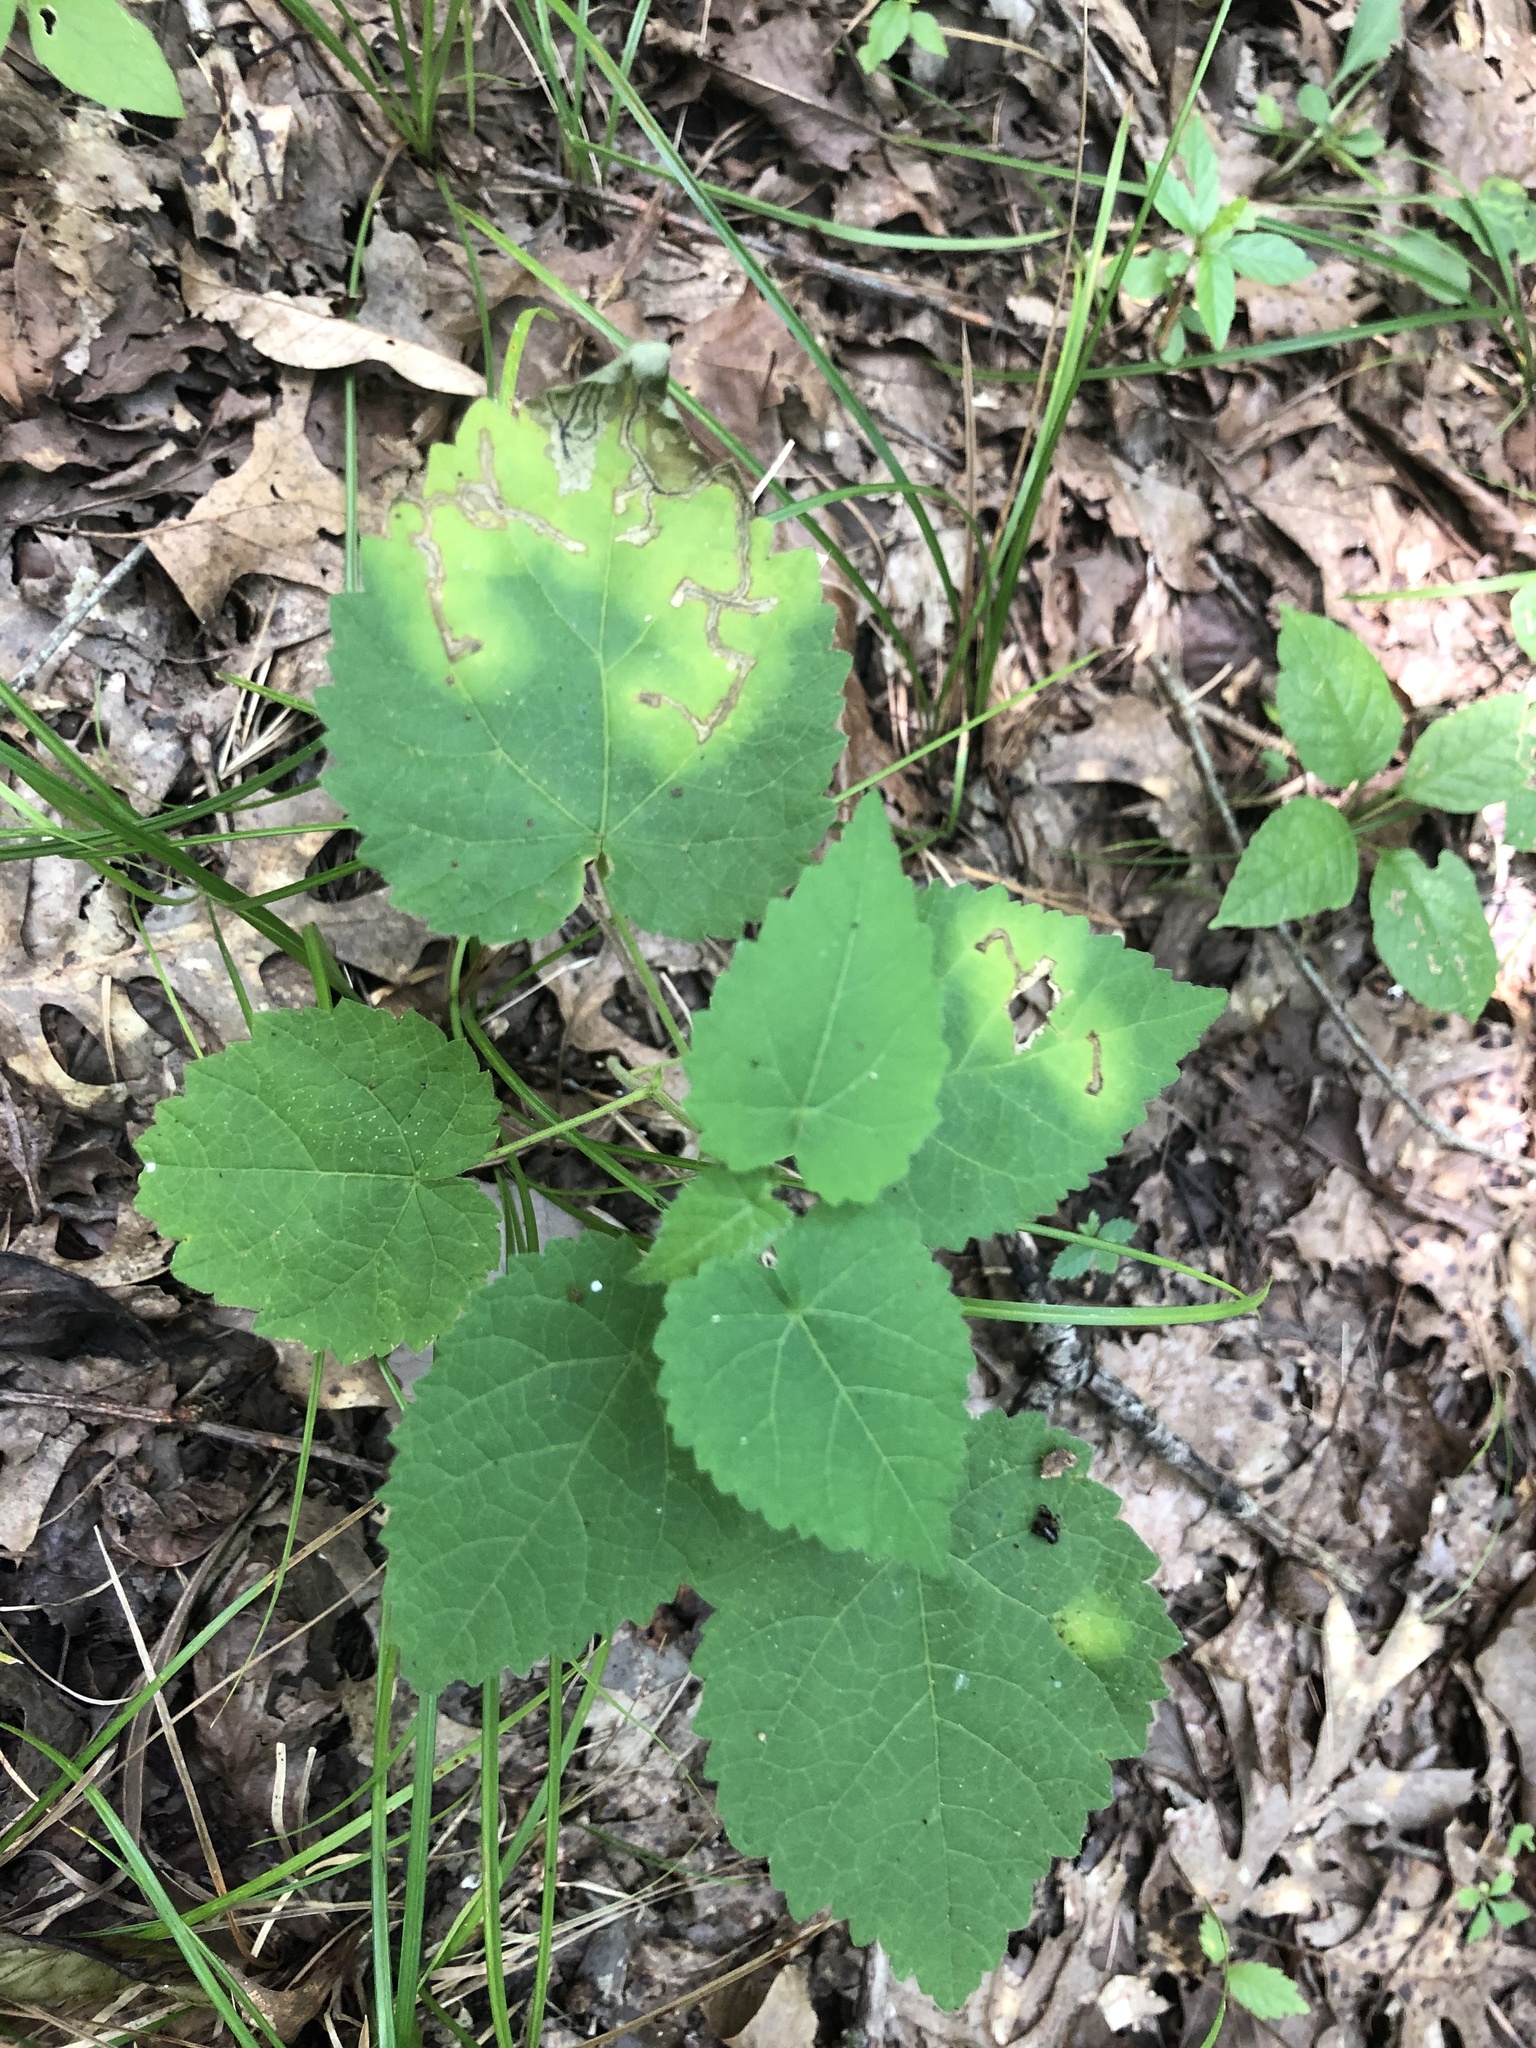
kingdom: Plantae
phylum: Tracheophyta
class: Magnoliopsida
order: Malpighiales
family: Euphorbiaceae
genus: Tragia
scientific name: Tragia cordata
